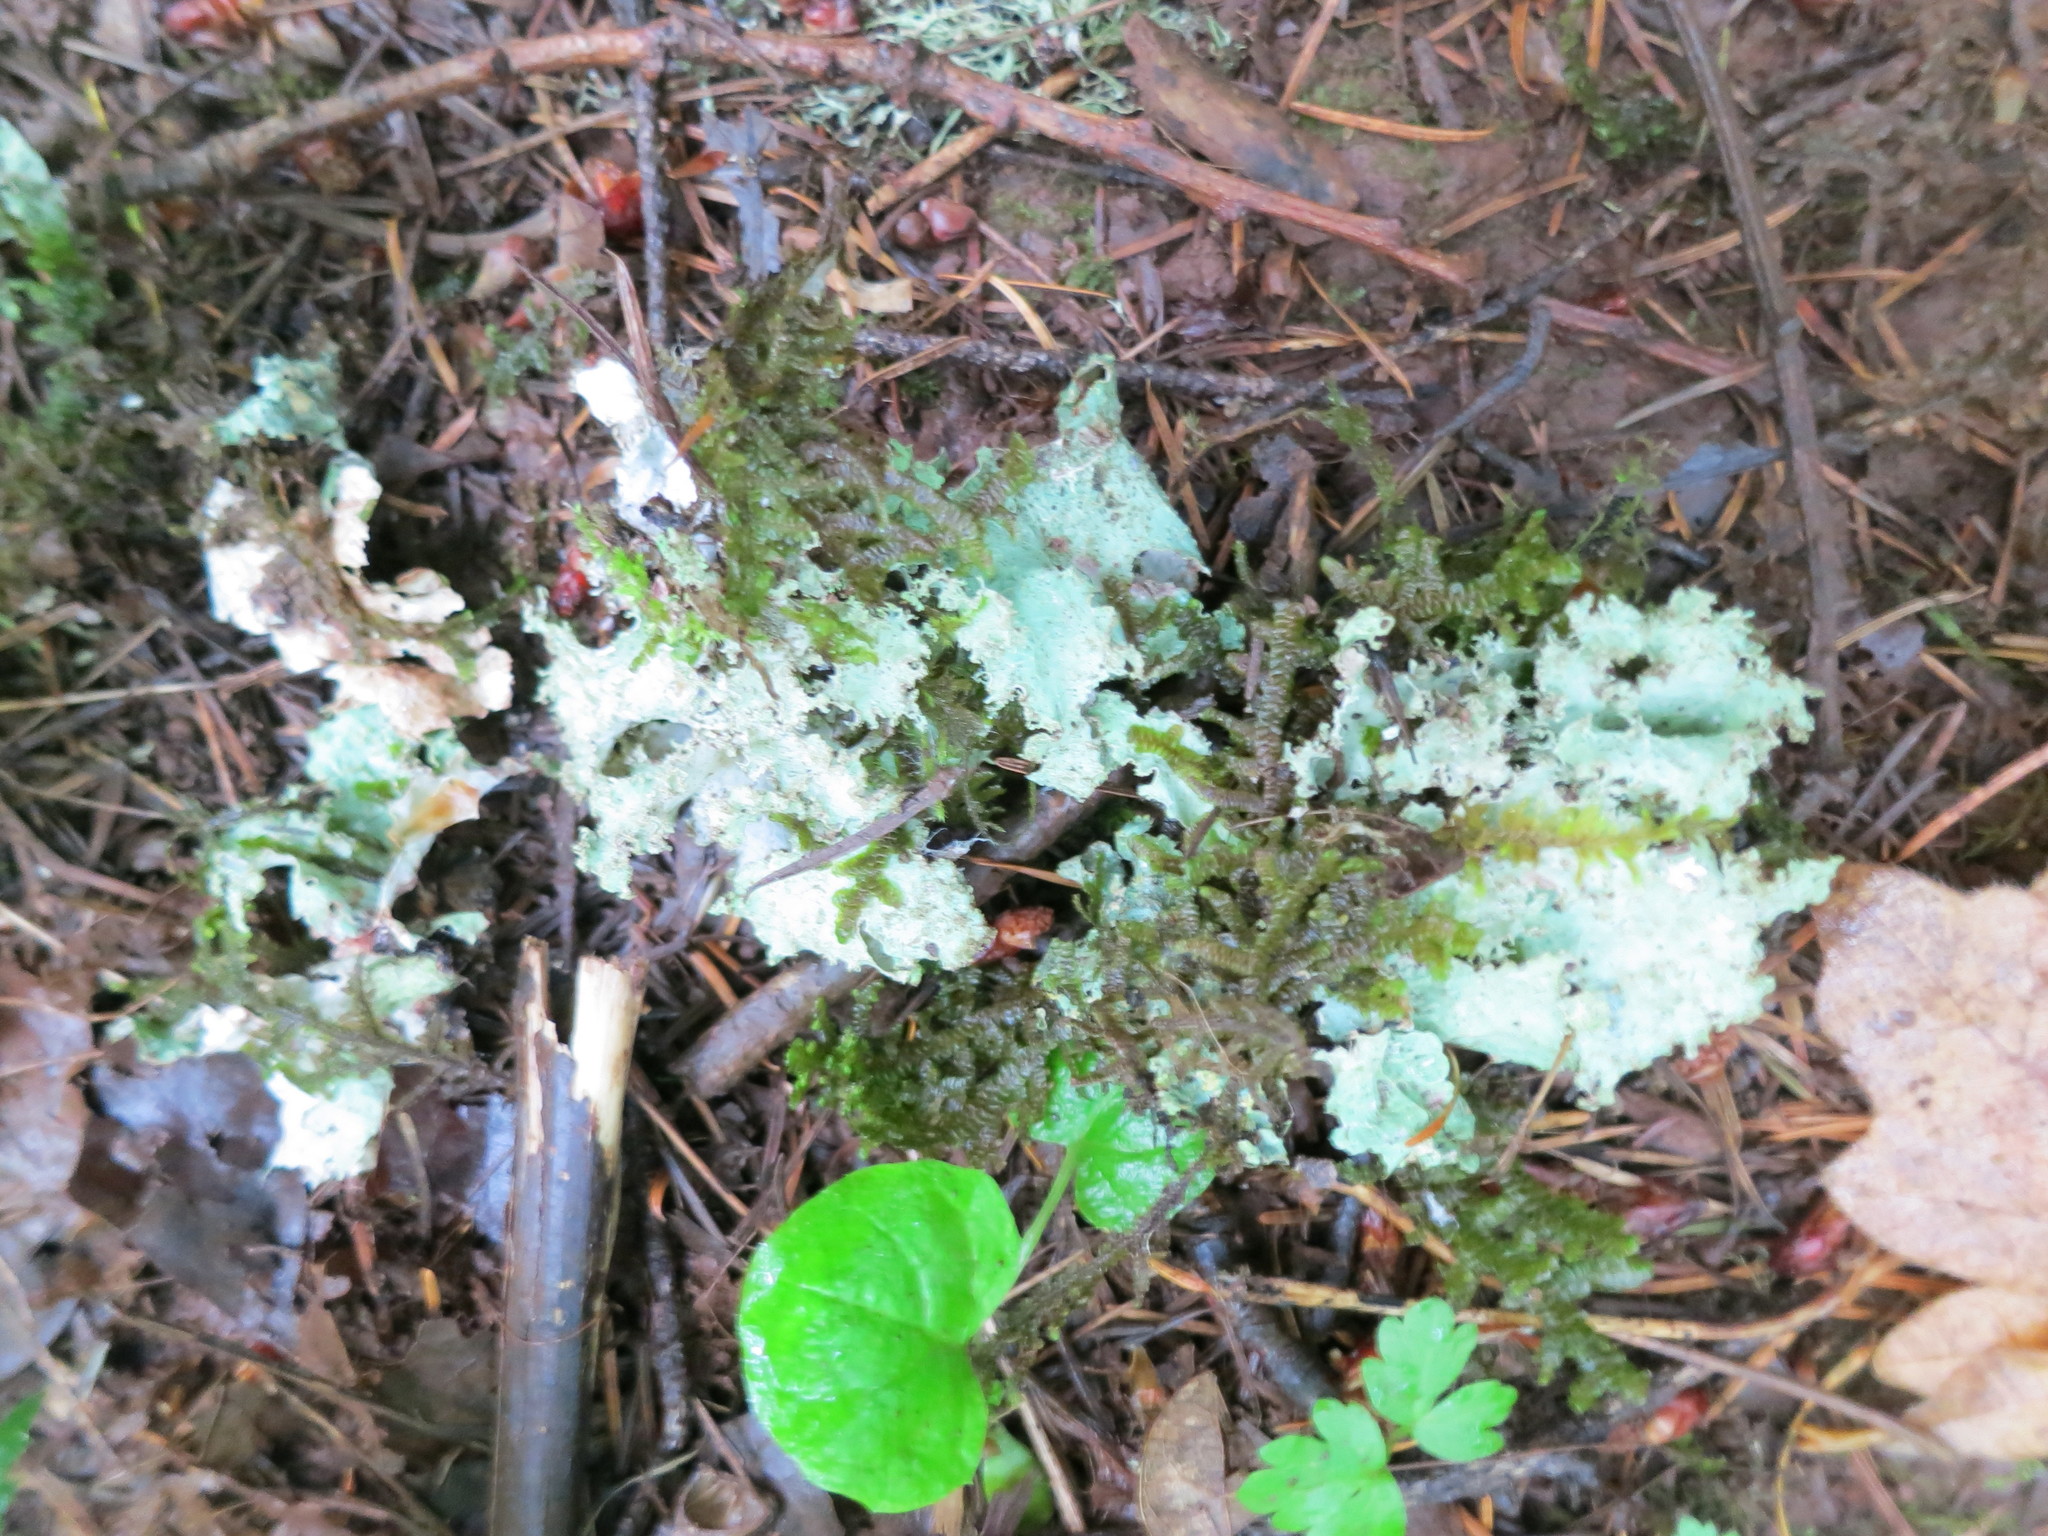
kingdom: Fungi
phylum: Ascomycota
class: Lecanoromycetes
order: Lecanorales
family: Parmeliaceae
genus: Platismatia
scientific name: Platismatia glauca
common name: Varied rag lichen
